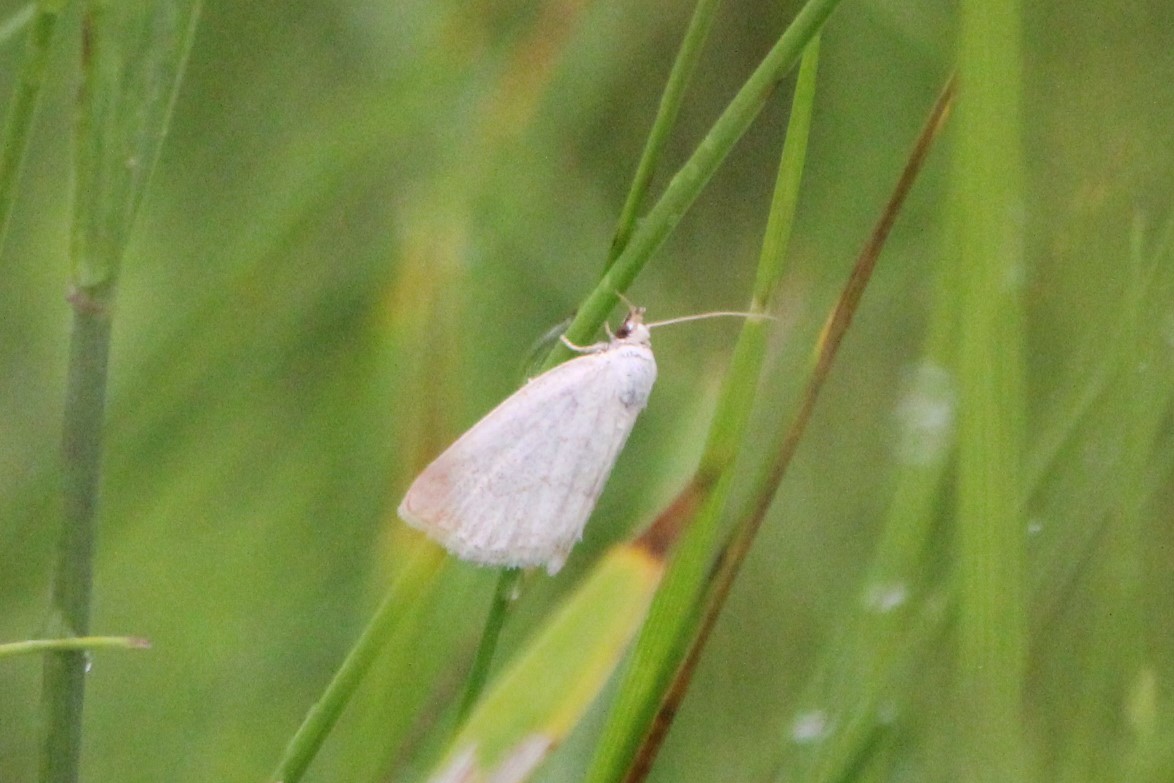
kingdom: Animalia
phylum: Arthropoda
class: Insecta
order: Lepidoptera
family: Noctuidae
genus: Protodeltote
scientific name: Protodeltote albidula
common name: Pale glyph
